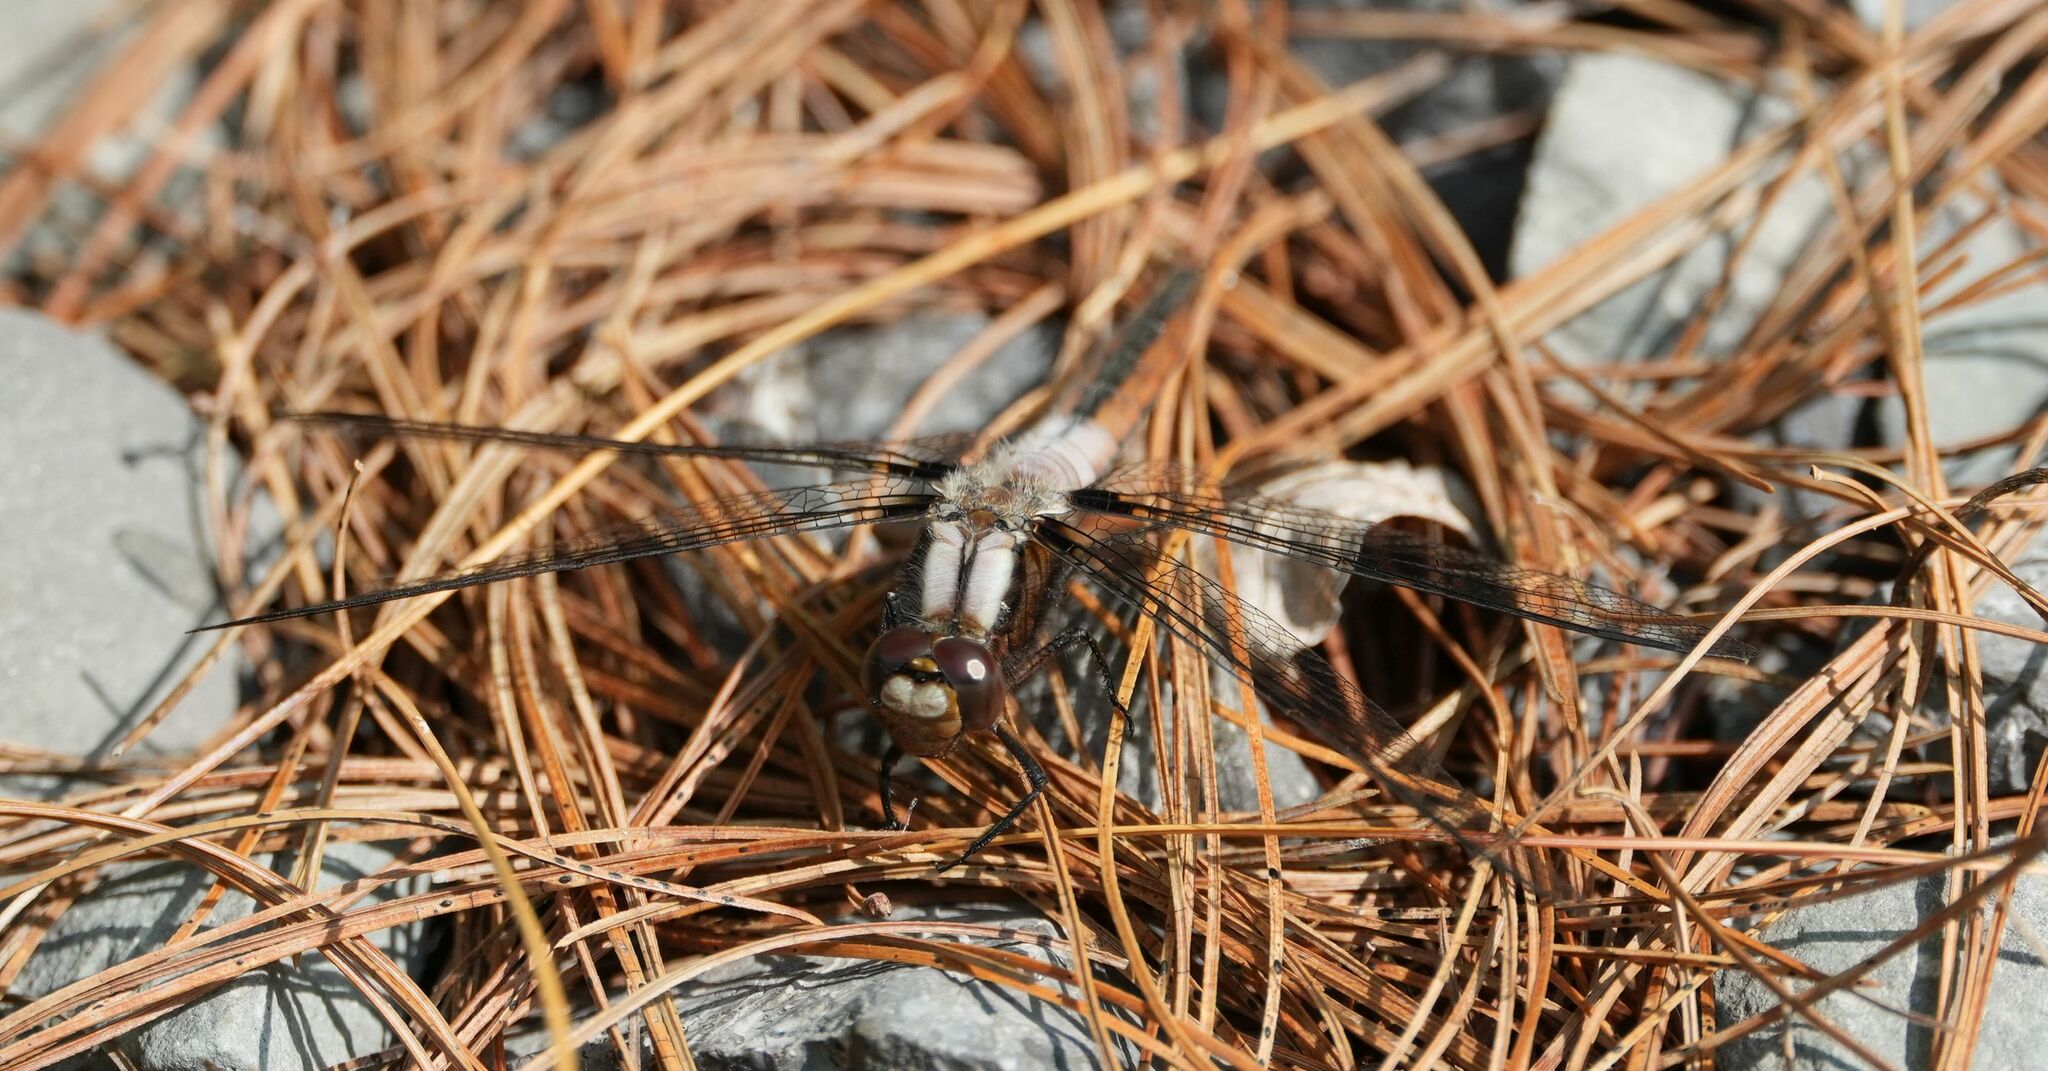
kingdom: Animalia
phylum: Arthropoda
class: Insecta
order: Odonata
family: Libellulidae
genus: Ladona
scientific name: Ladona julia
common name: Chalk-fronted corporal
